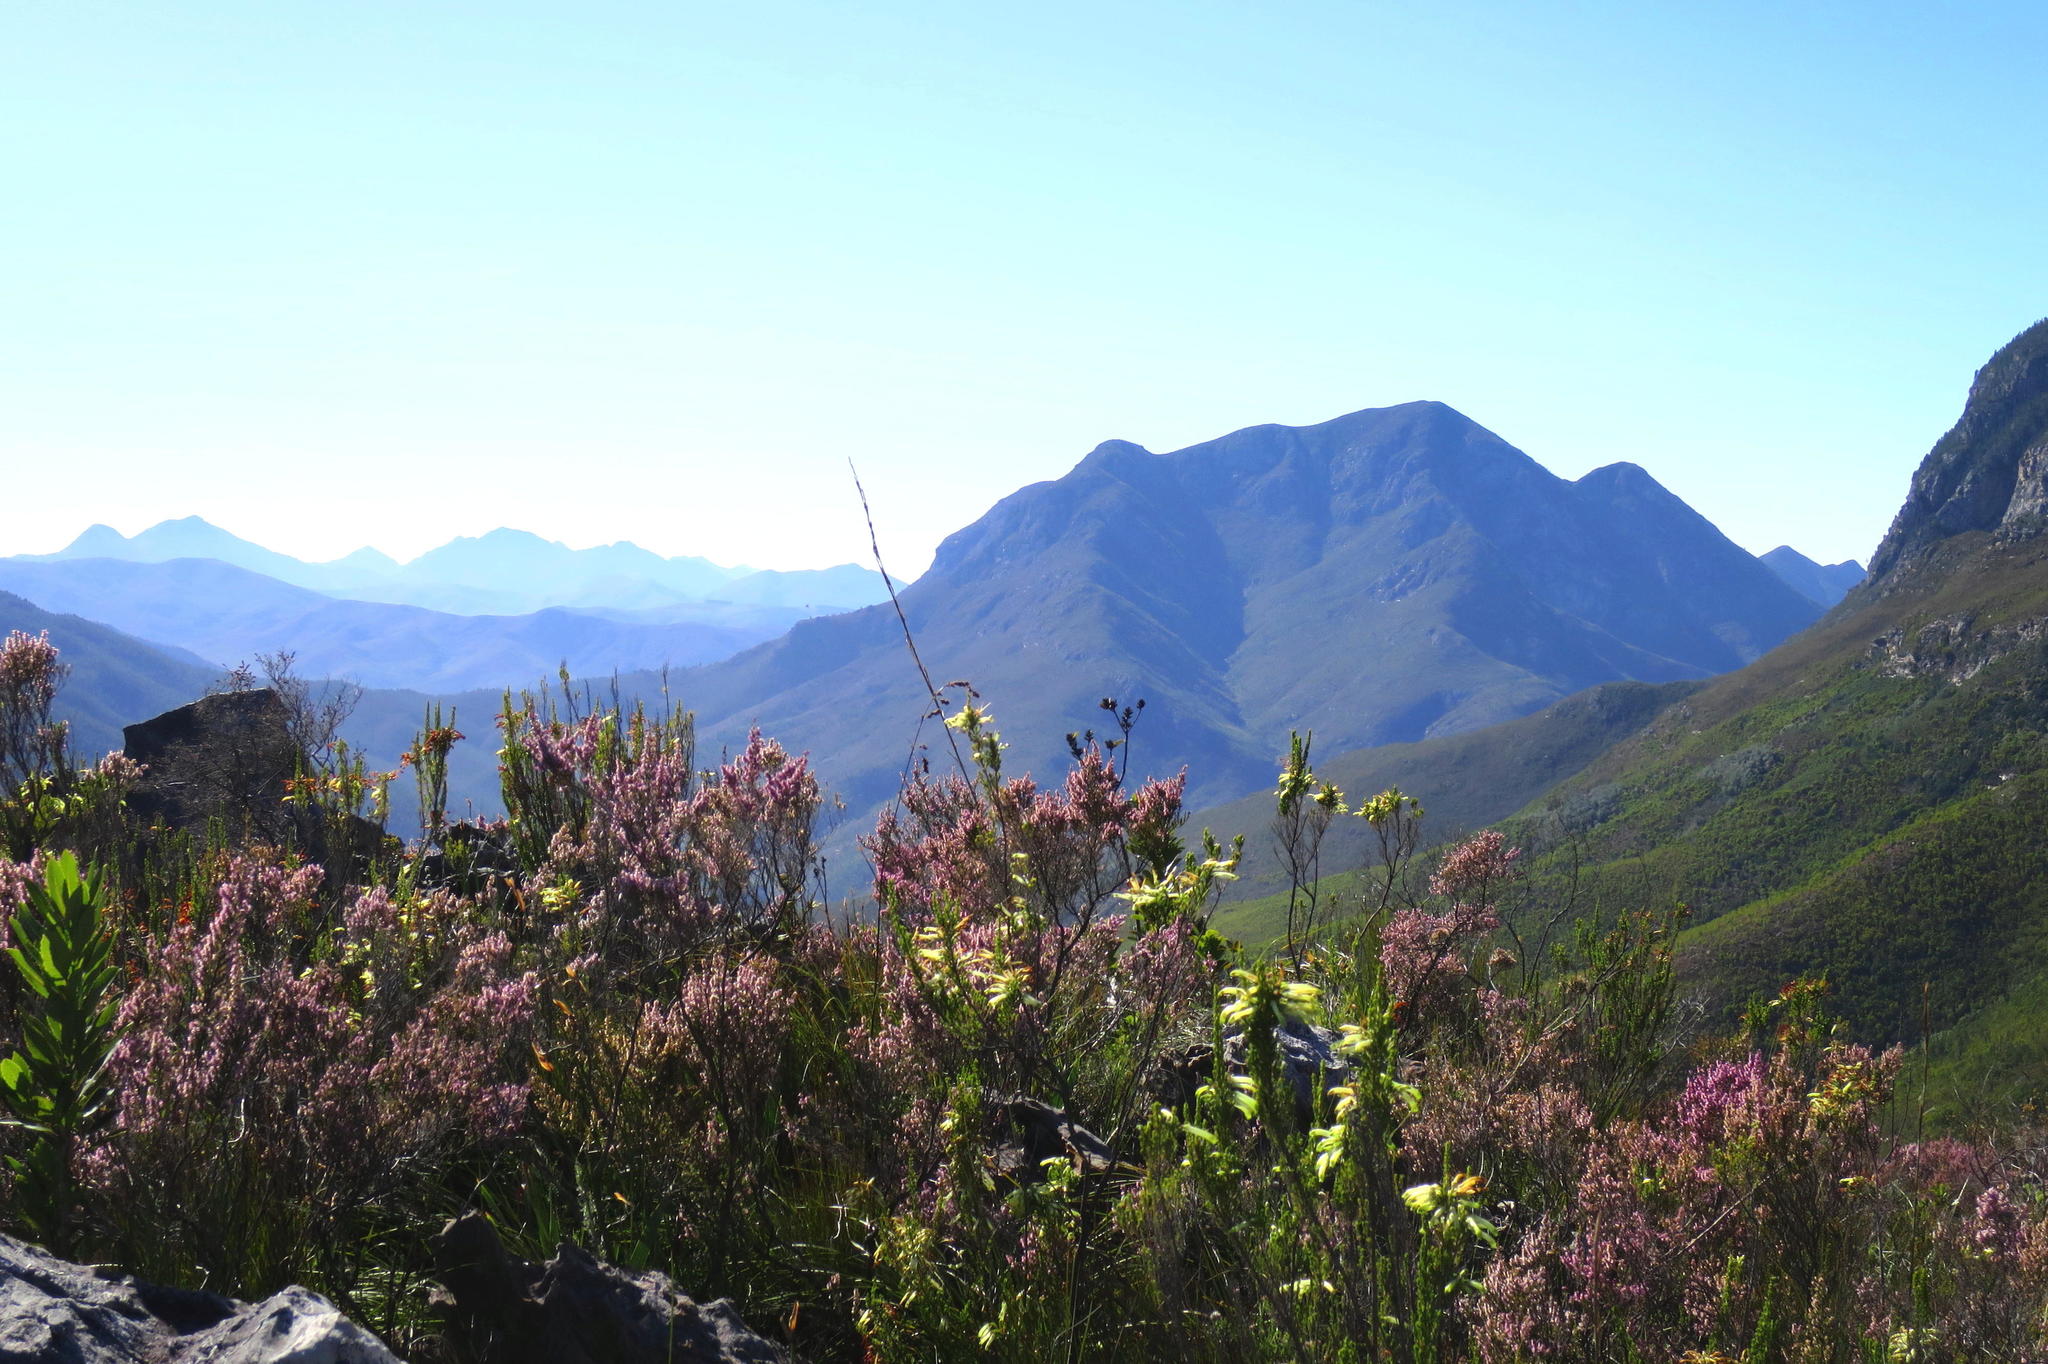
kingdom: Plantae
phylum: Tracheophyta
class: Magnoliopsida
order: Ericales
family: Ericaceae
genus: Erica
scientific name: Erica uberiflora
